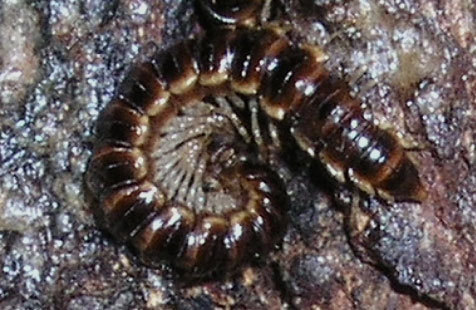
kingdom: Animalia
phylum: Arthropoda
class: Diplopoda
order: Polydesmida
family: Paradoxosomatidae
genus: Oxidus
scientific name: Oxidus gracilis
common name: Greenhouse millipede
